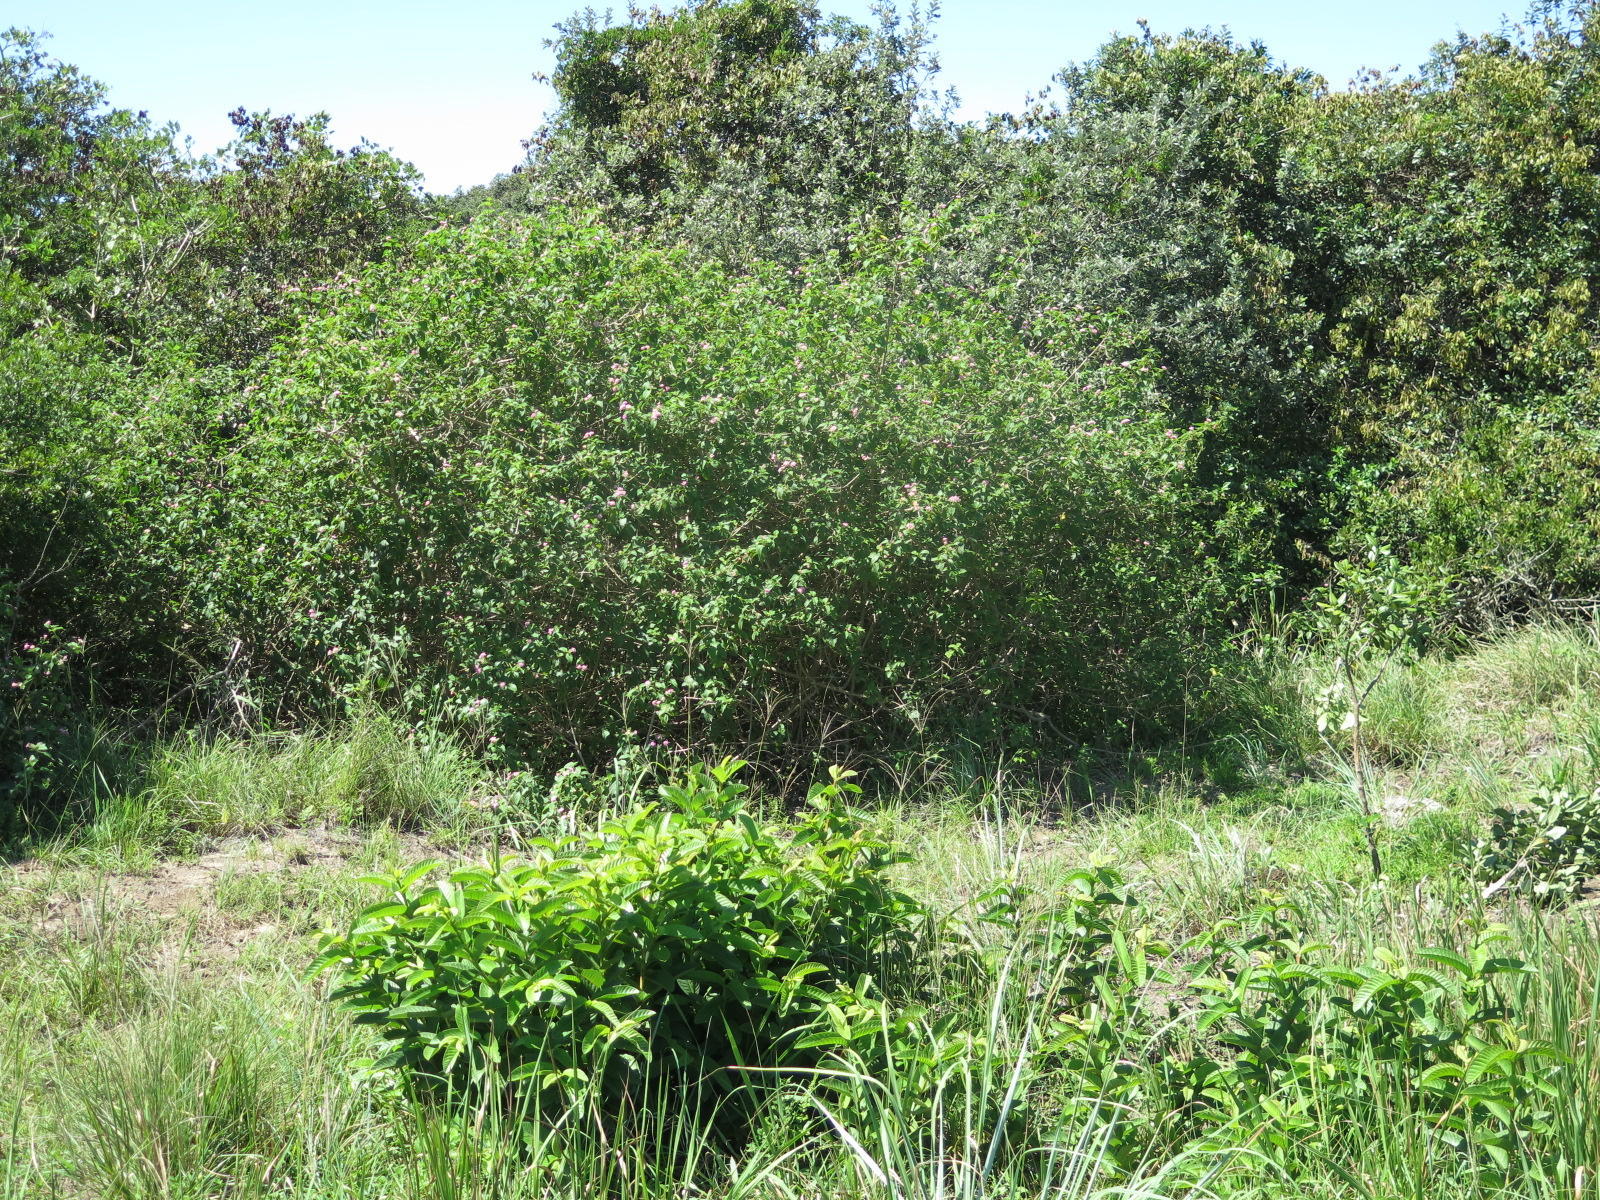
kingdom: Plantae
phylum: Tracheophyta
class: Magnoliopsida
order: Lamiales
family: Verbenaceae
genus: Lantana
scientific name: Lantana camara
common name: Lantana
